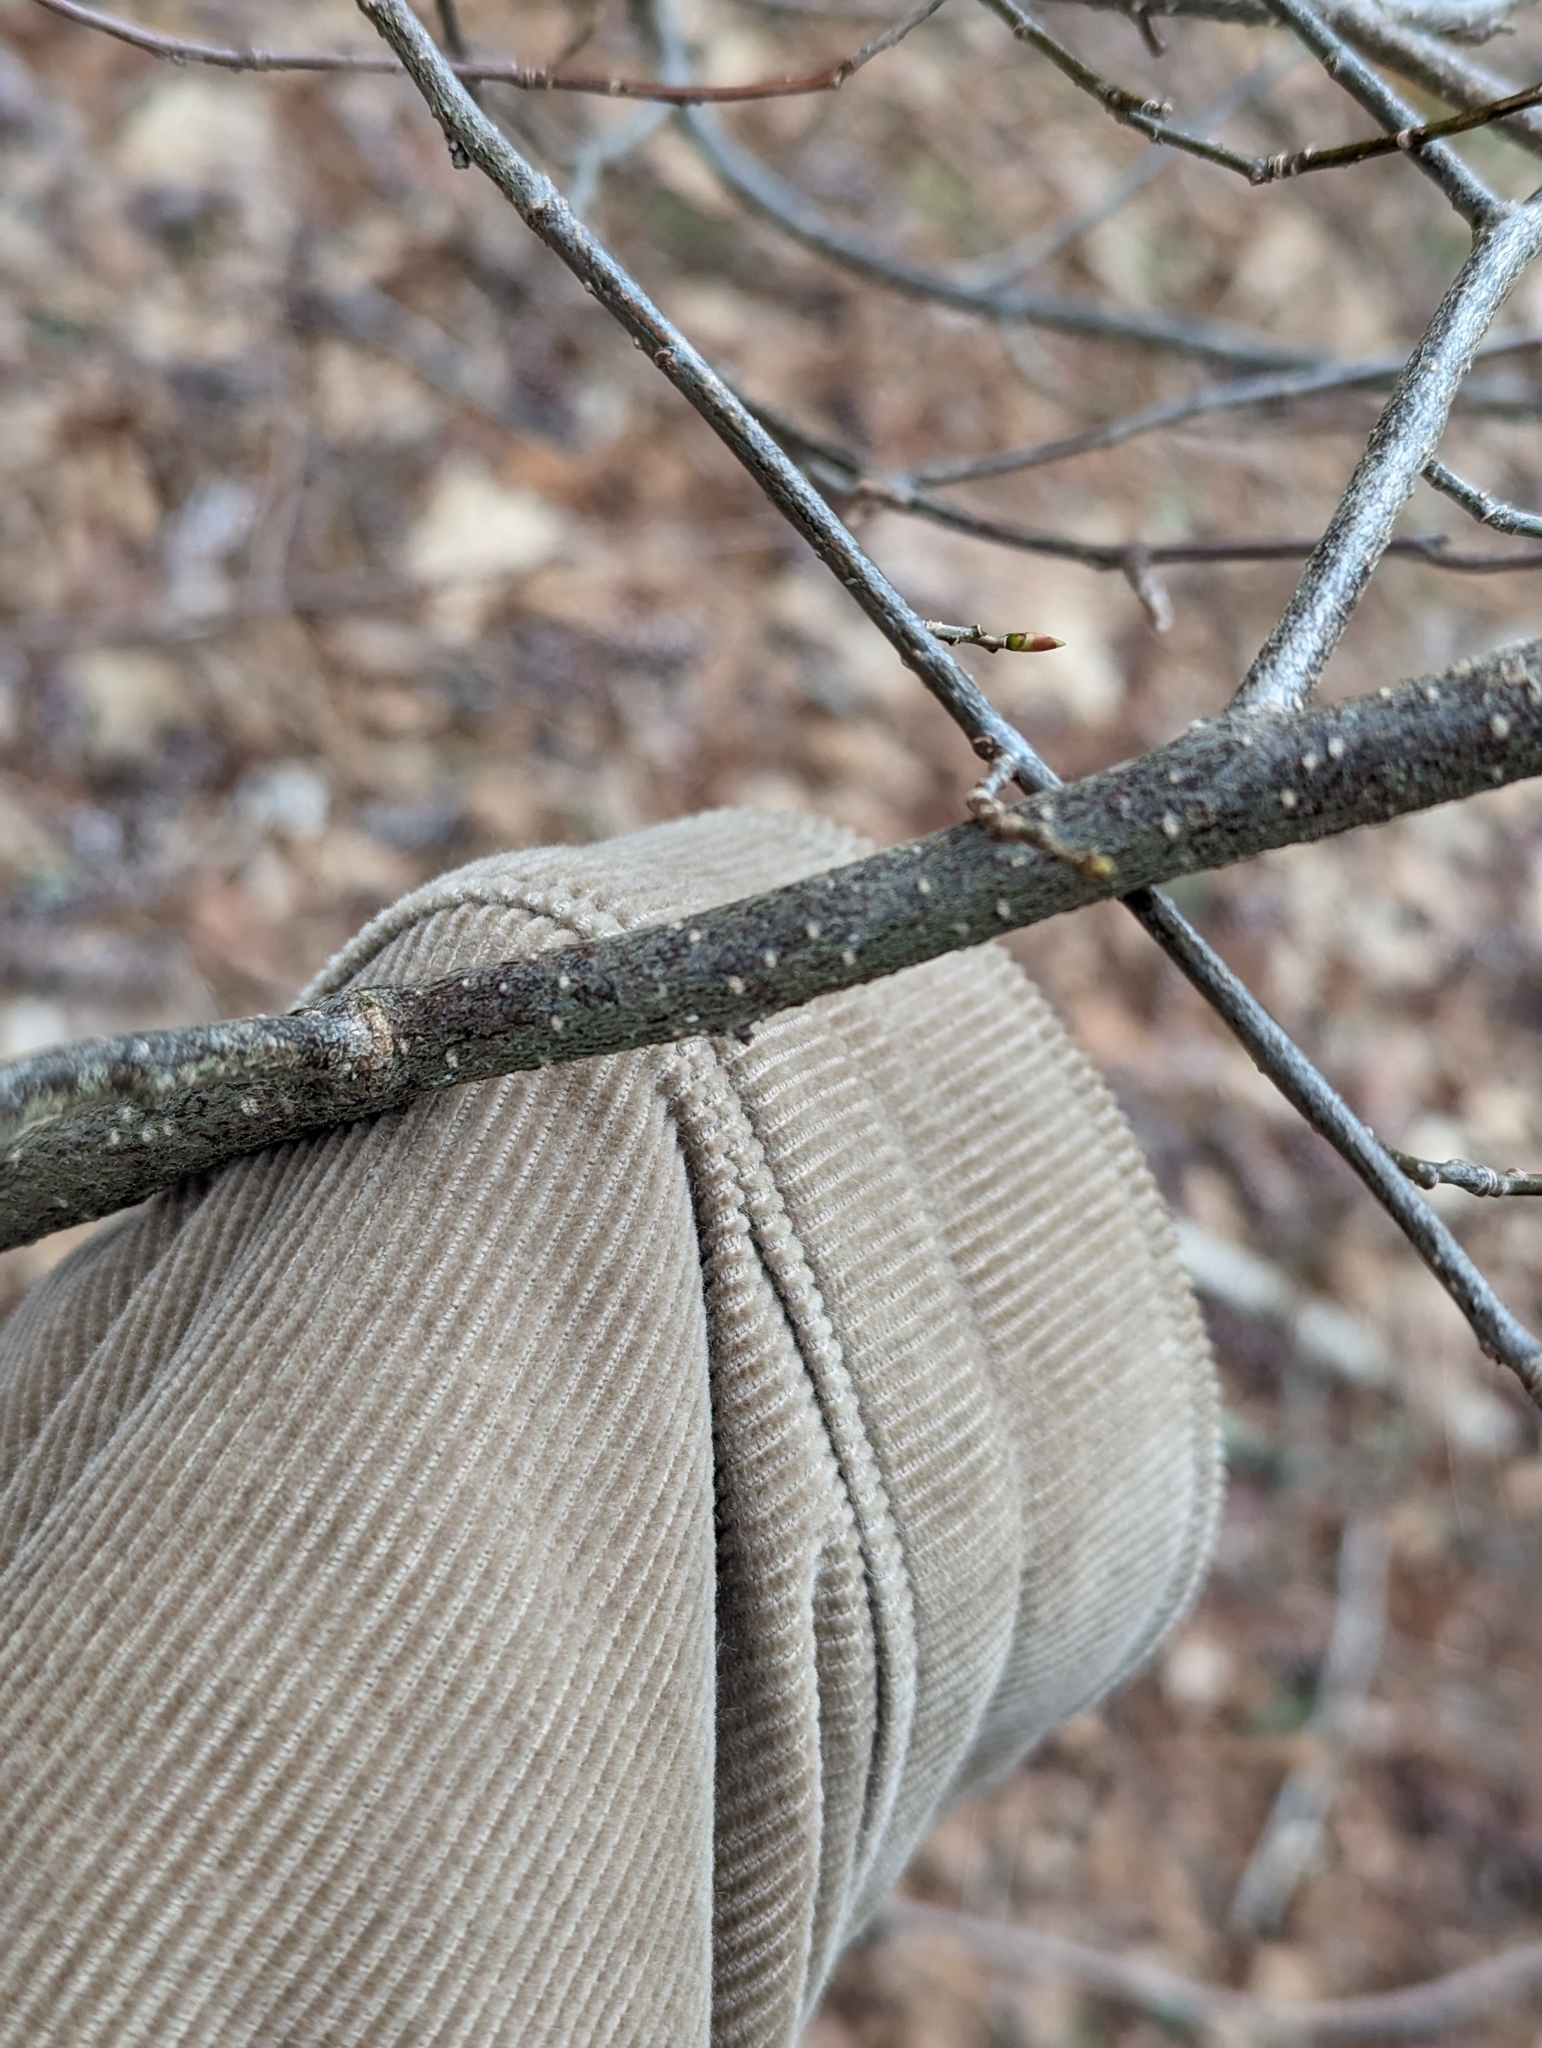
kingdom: Plantae
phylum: Tracheophyta
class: Magnoliopsida
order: Laurales
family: Lauraceae
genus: Lindera
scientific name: Lindera benzoin
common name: Spicebush
